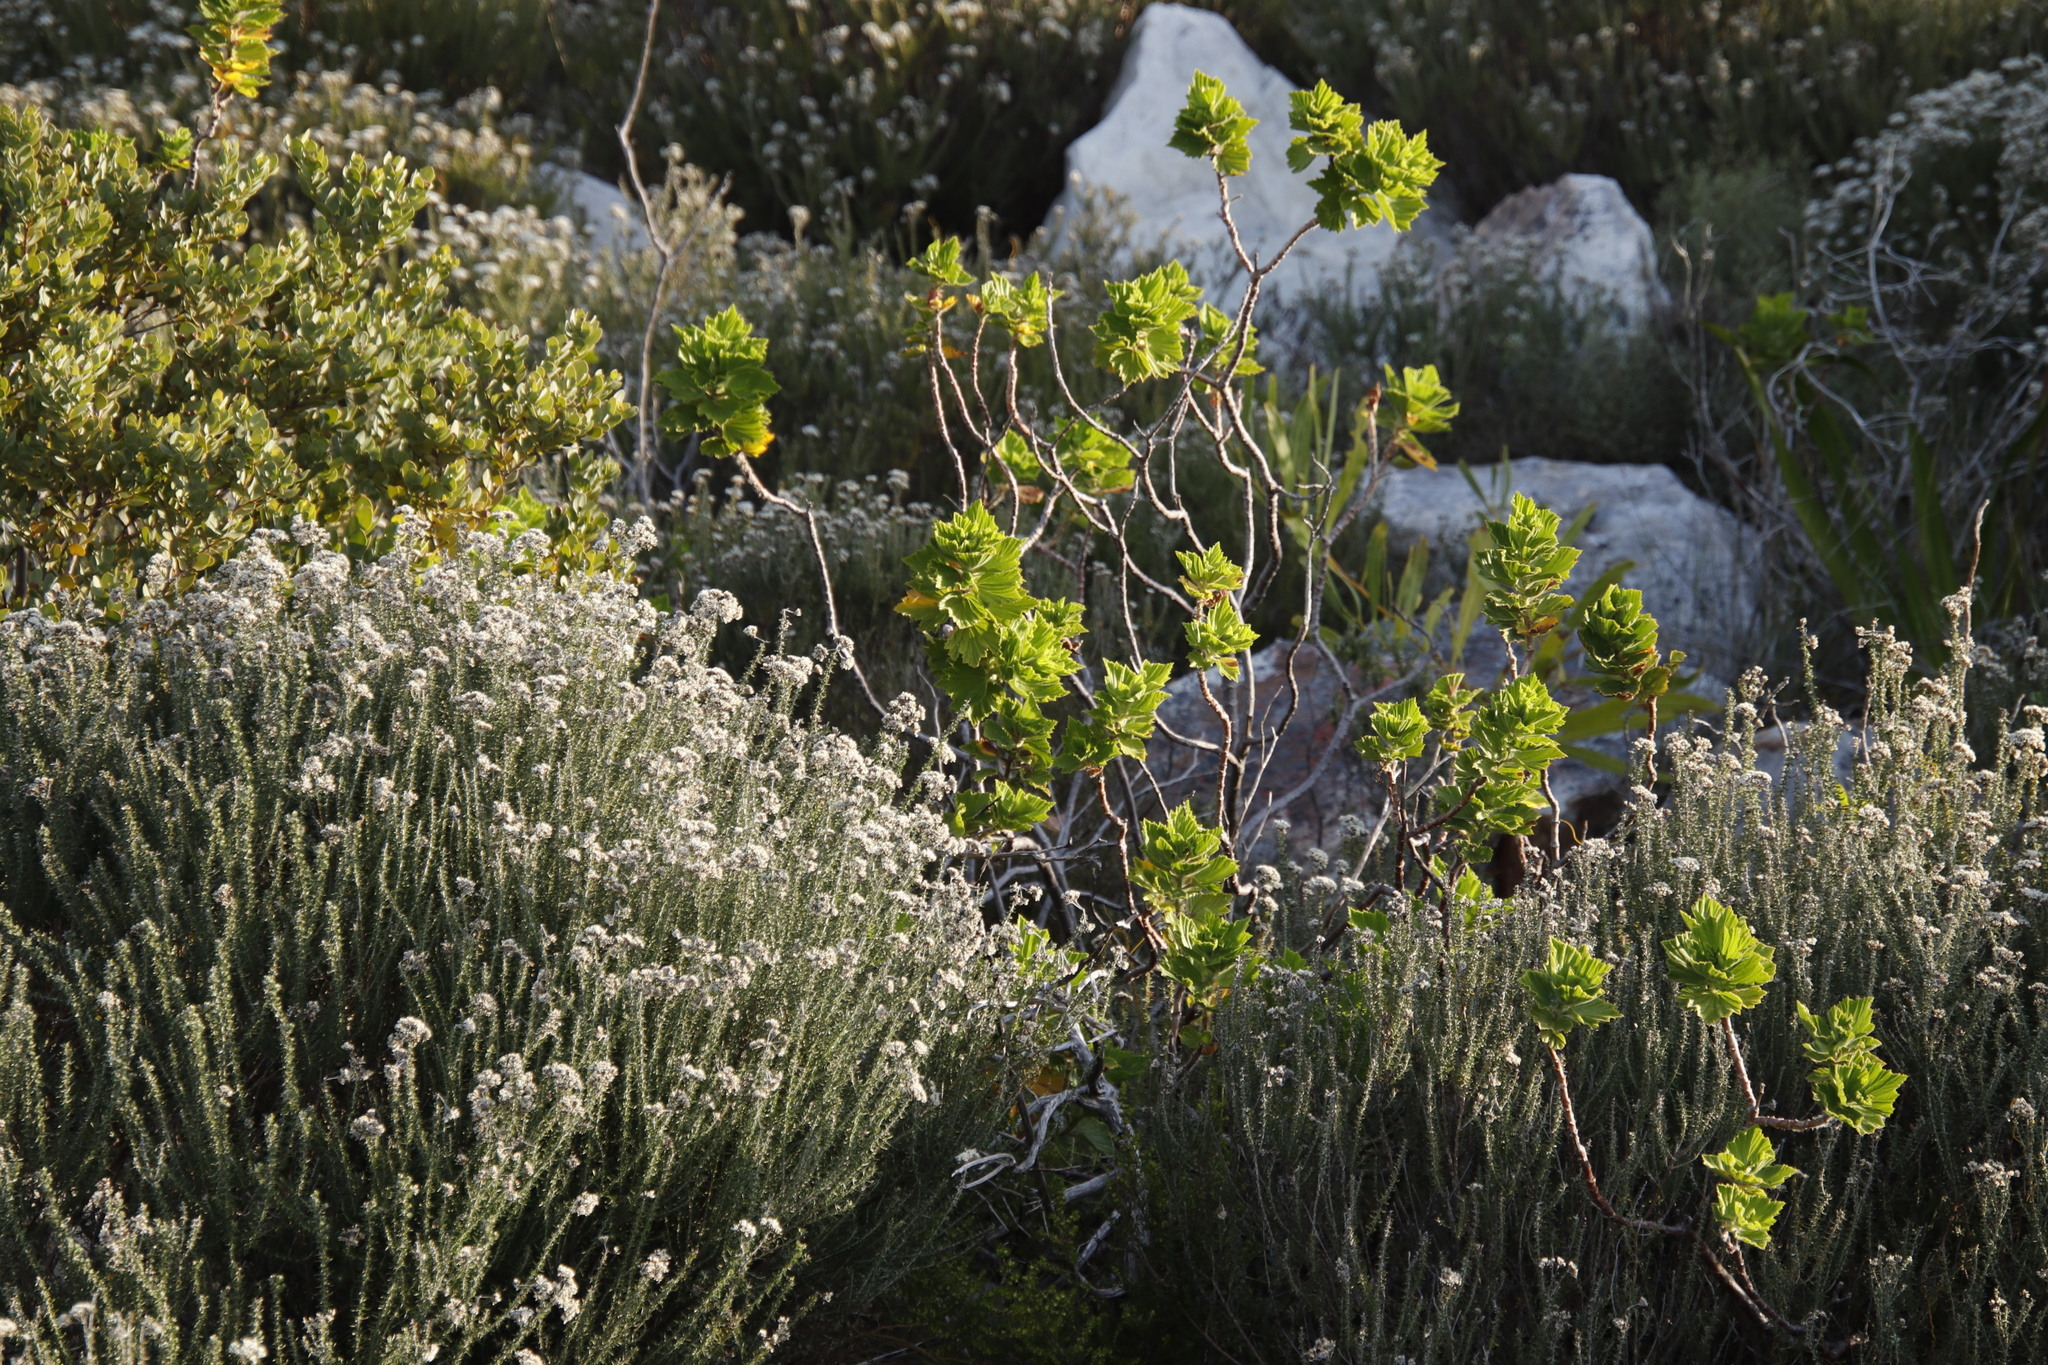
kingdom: Plantae
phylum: Tracheophyta
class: Magnoliopsida
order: Geraniales
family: Geraniaceae
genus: Pelargonium
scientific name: Pelargonium cucullatum
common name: Tree pelargonium
